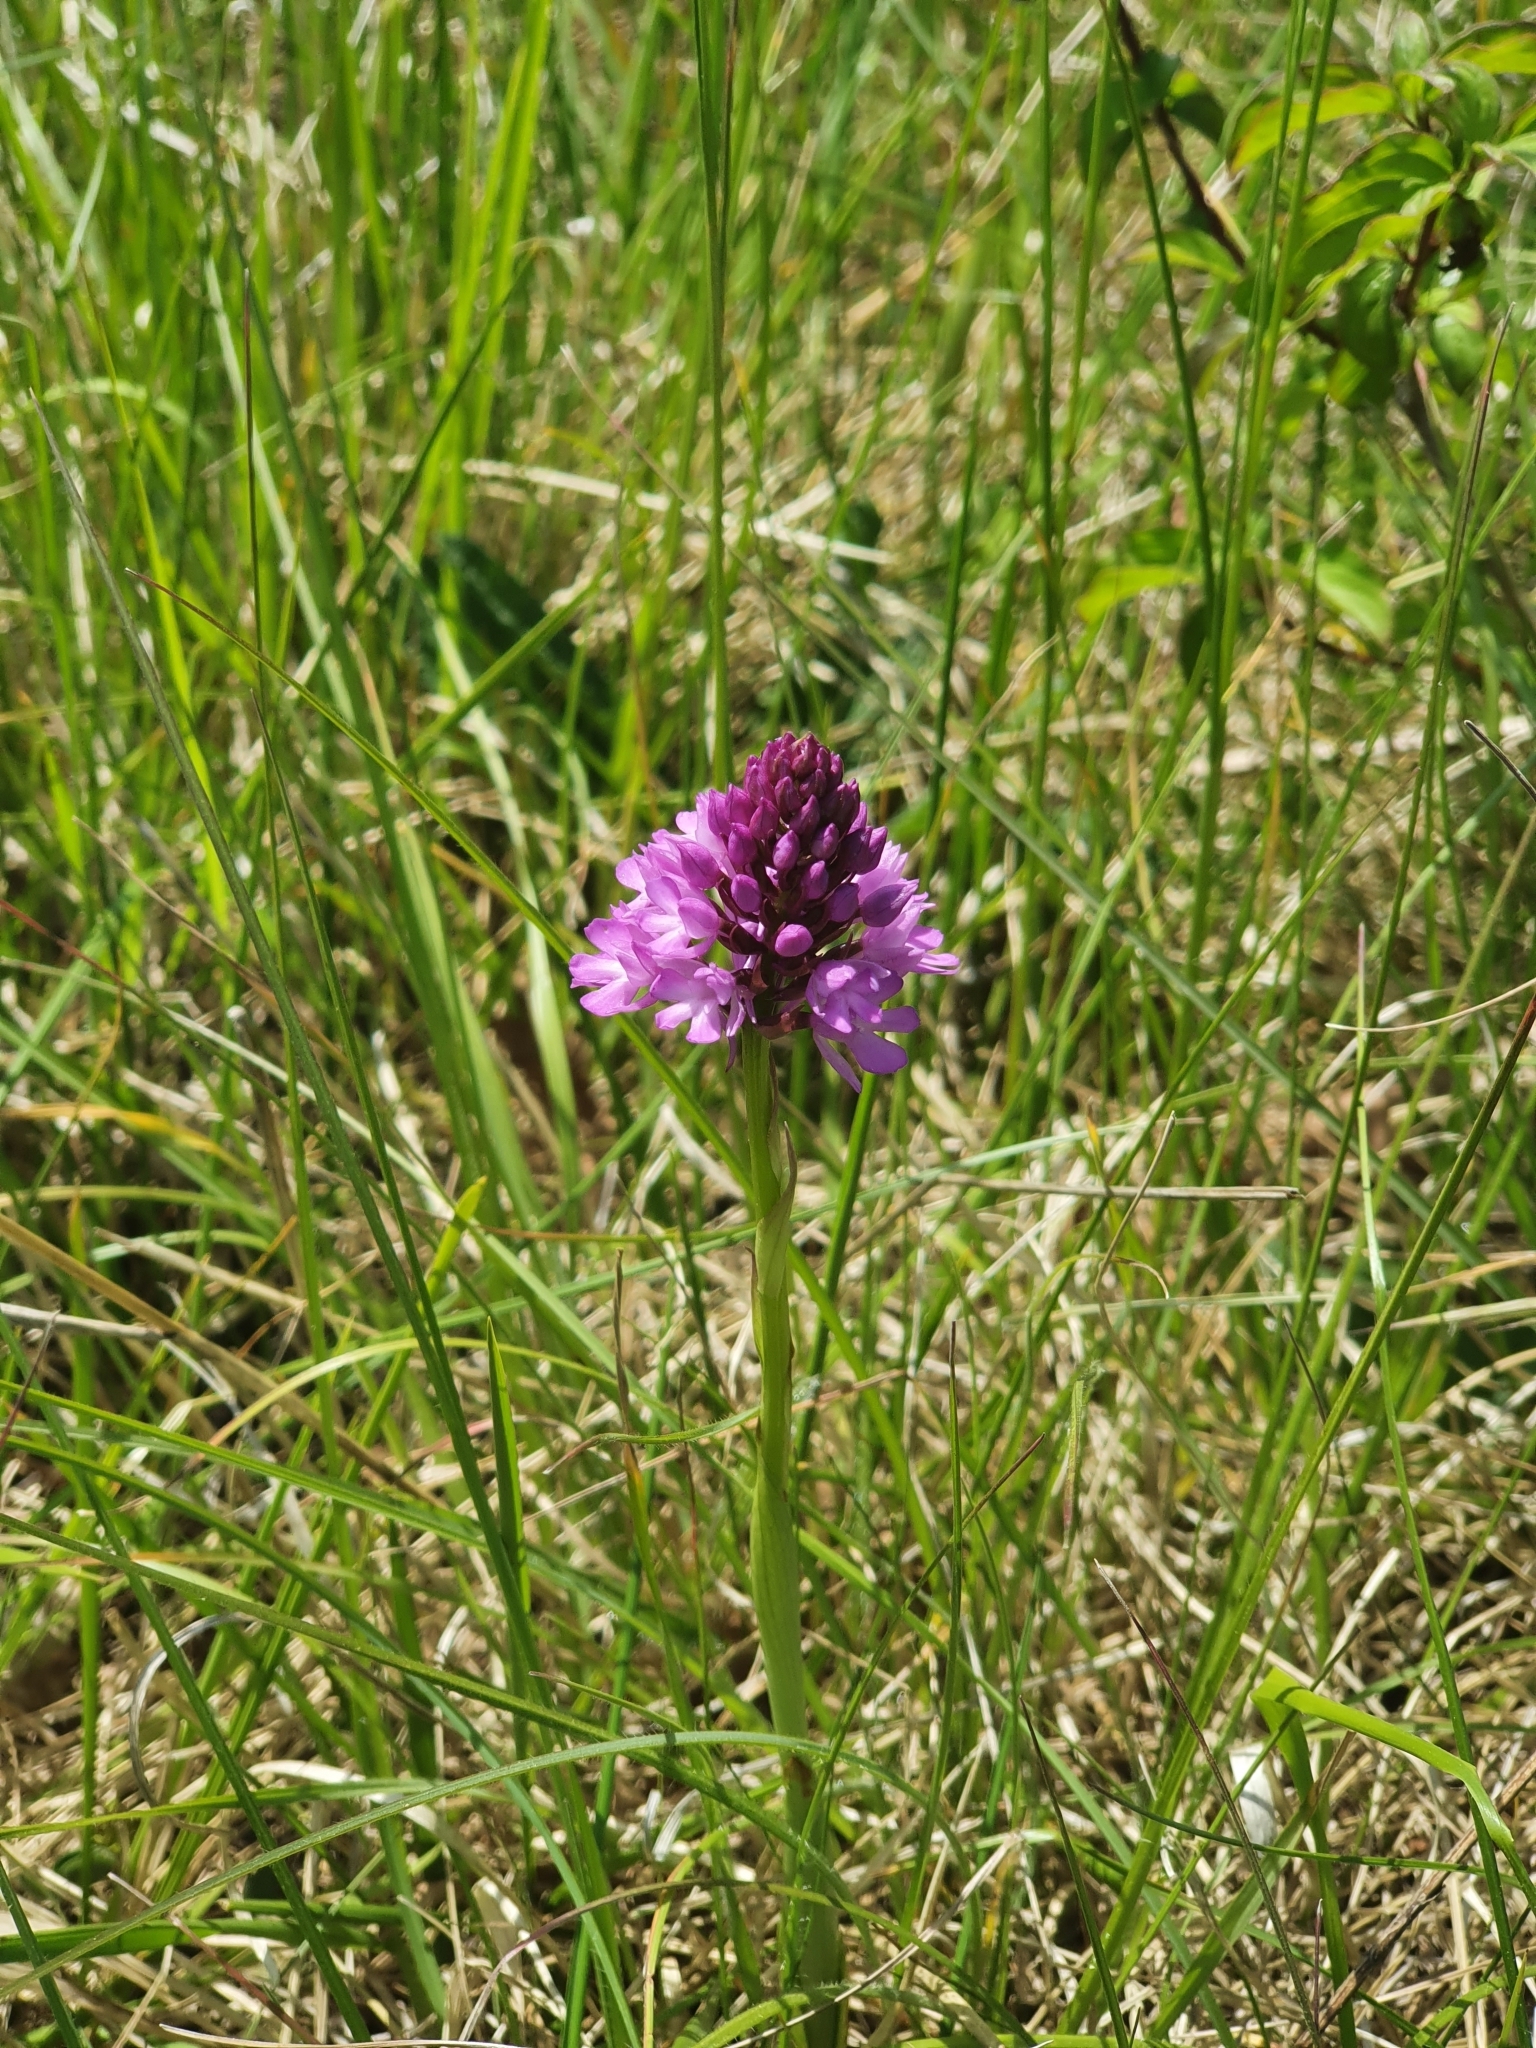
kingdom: Plantae
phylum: Tracheophyta
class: Liliopsida
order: Asparagales
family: Orchidaceae
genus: Anacamptis
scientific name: Anacamptis pyramidalis
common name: Pyramidal orchid
